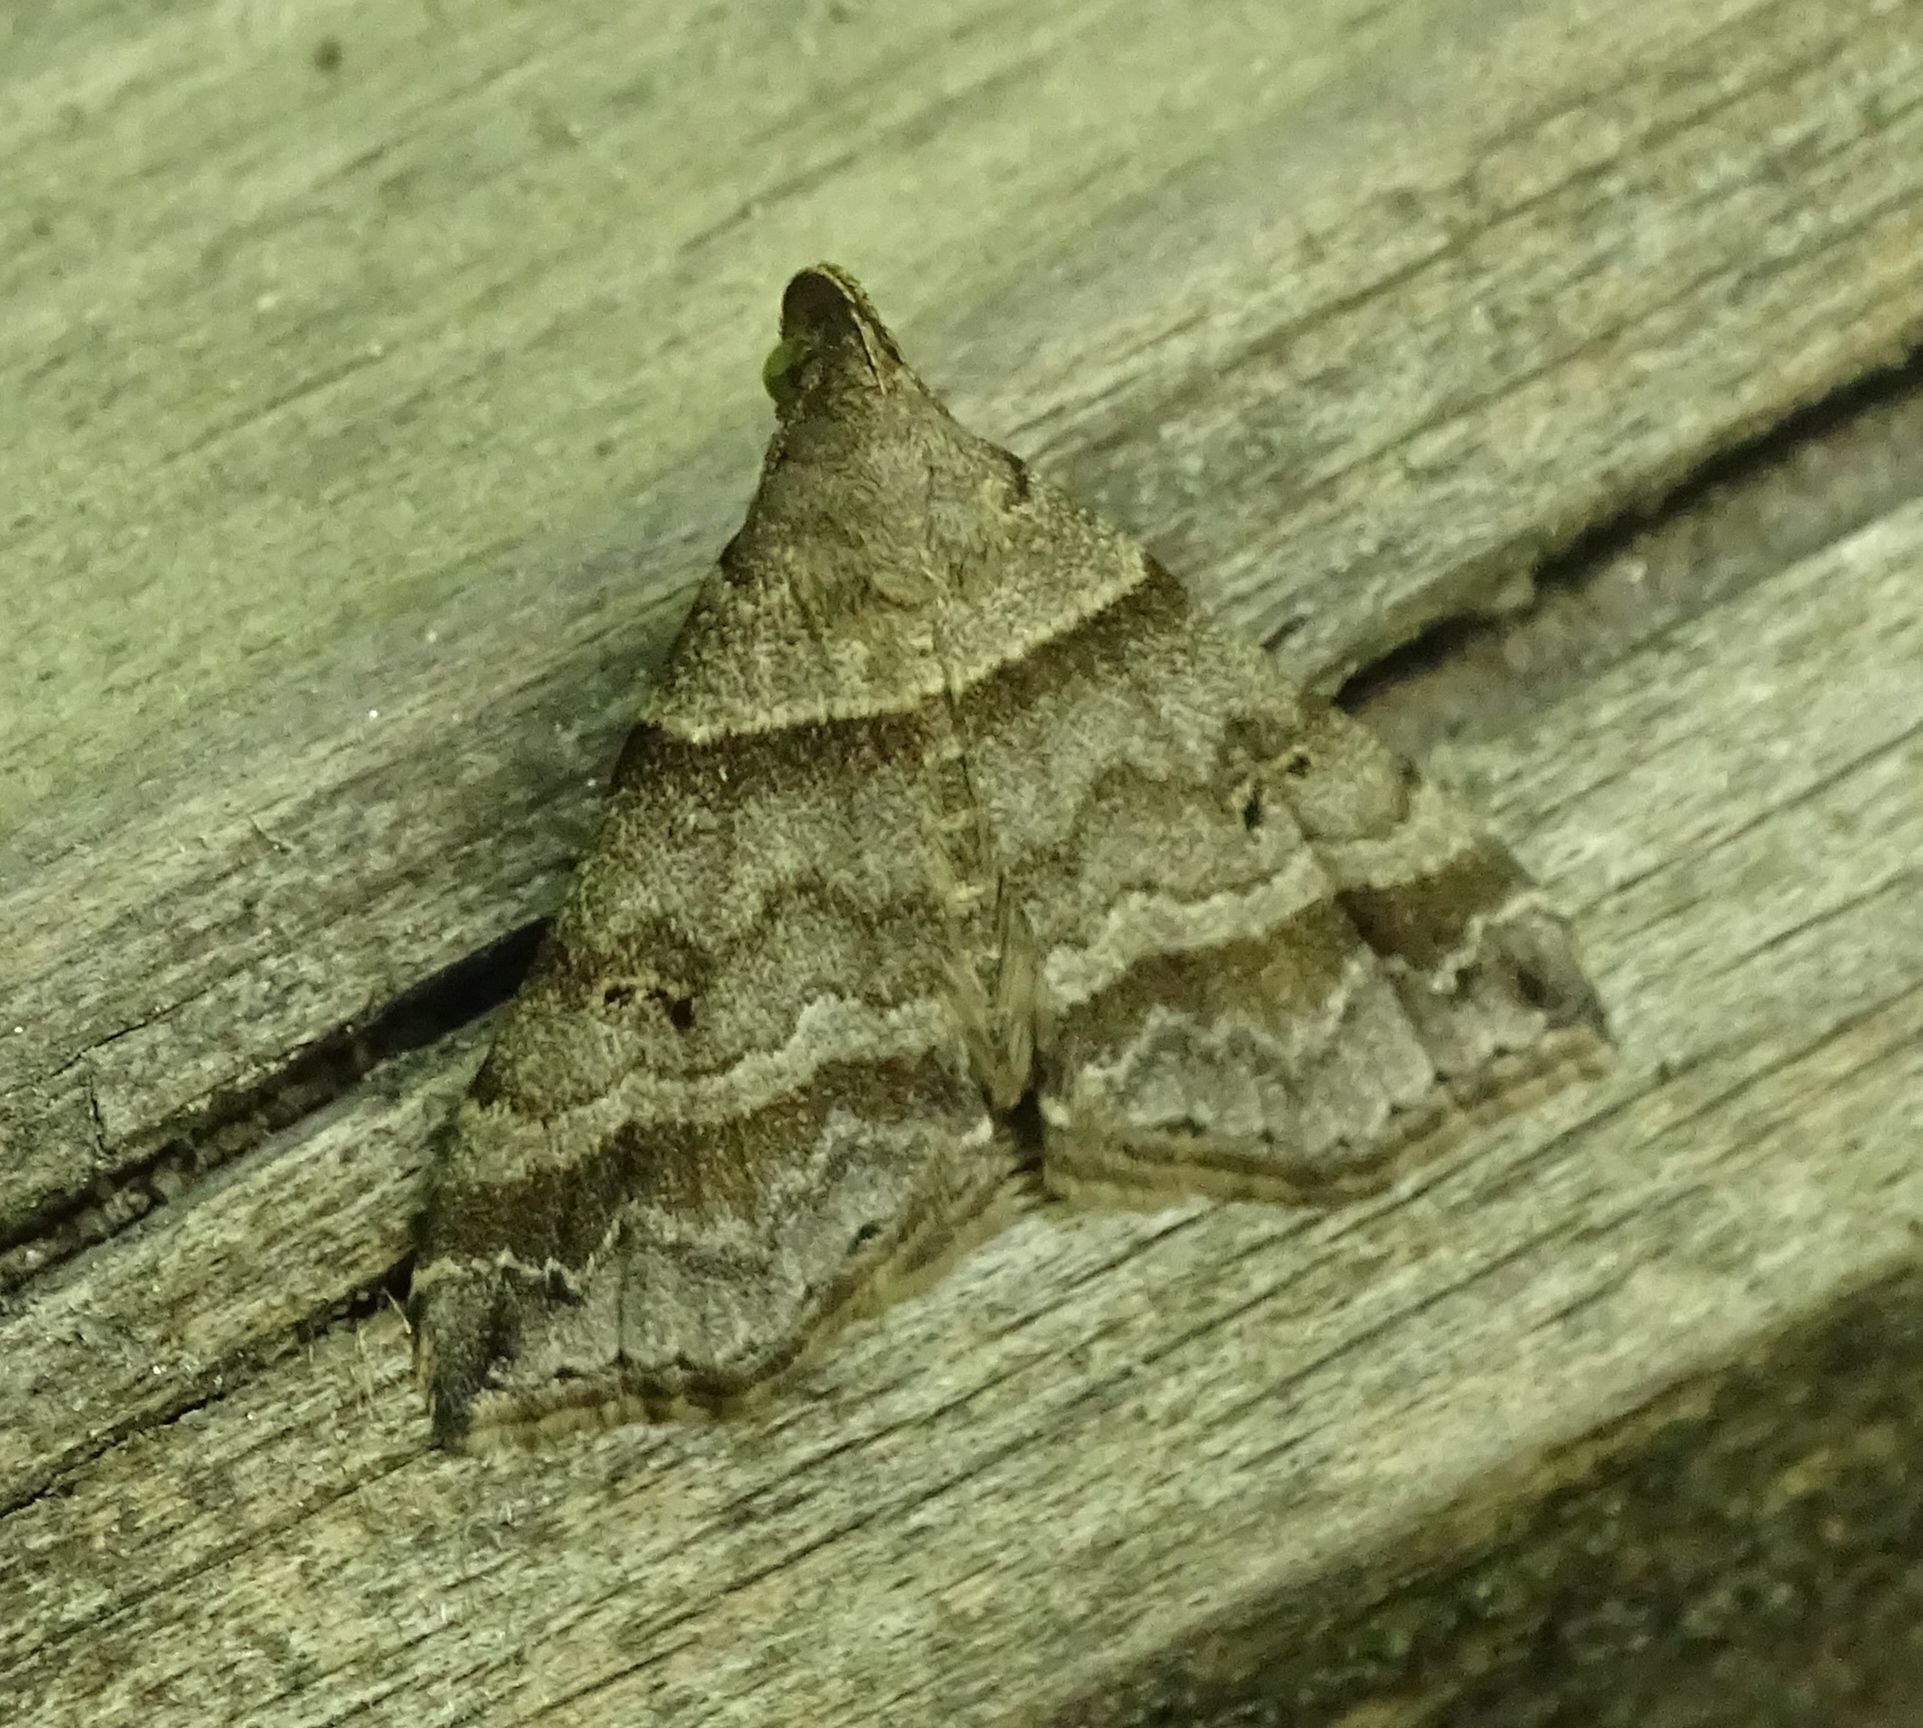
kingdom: Animalia
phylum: Arthropoda
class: Insecta
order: Lepidoptera
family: Erebidae
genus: Phaeolita
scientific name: Phaeolita pyramusalis
